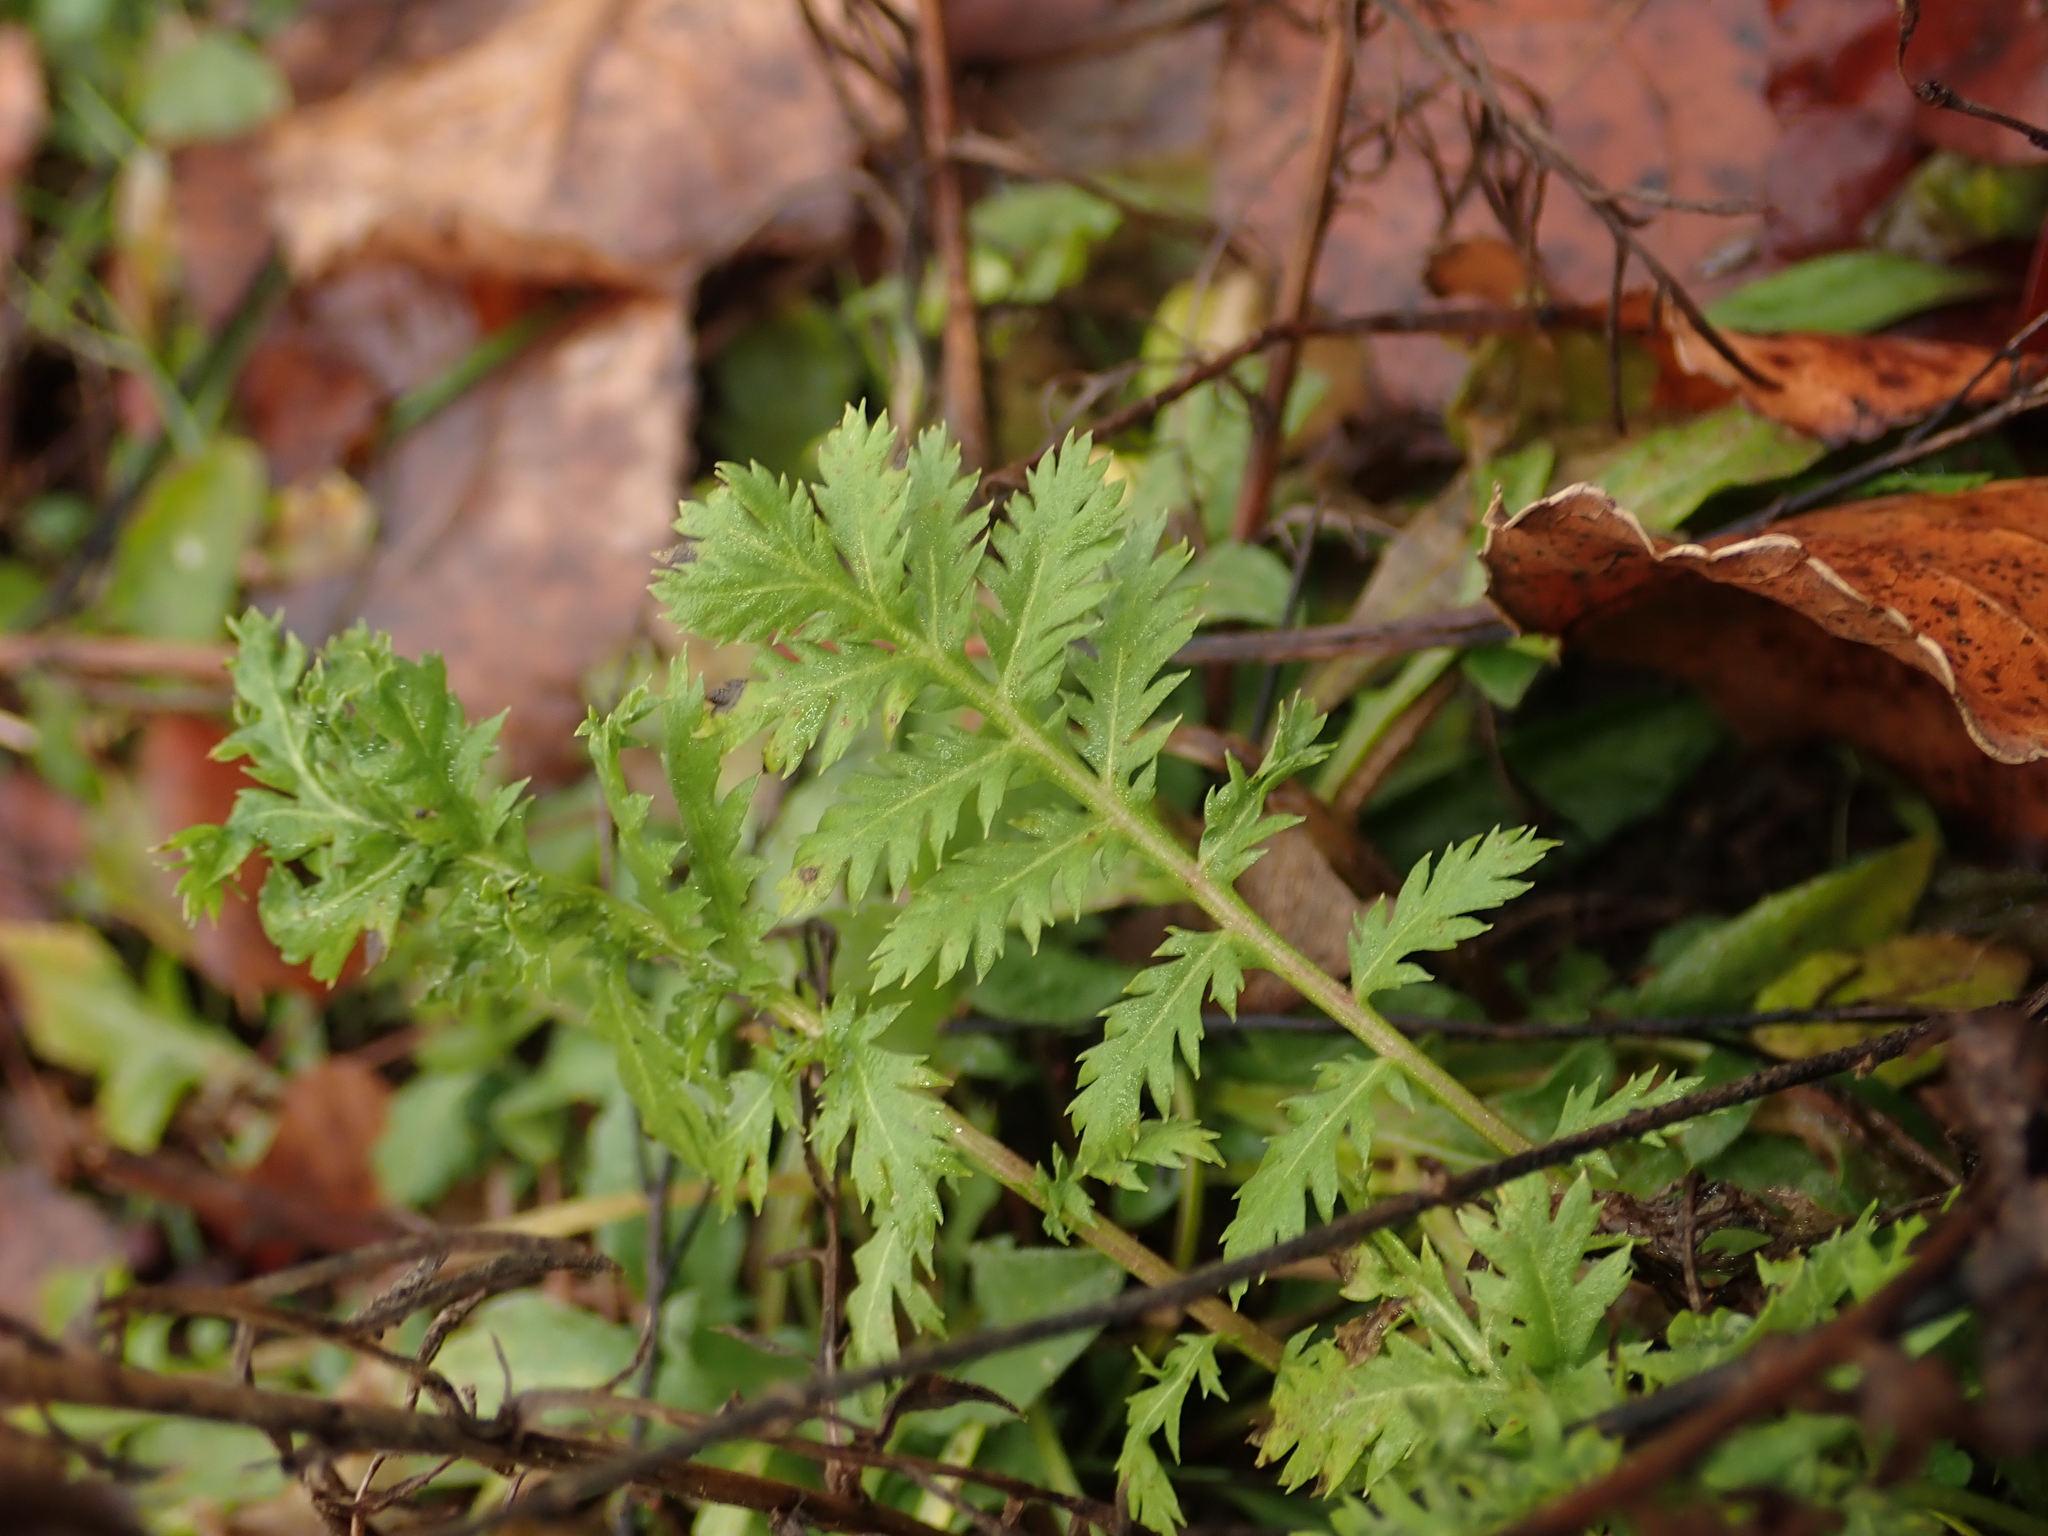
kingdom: Plantae
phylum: Tracheophyta
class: Magnoliopsida
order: Asterales
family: Asteraceae
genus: Tanacetum
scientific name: Tanacetum vulgare
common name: Common tansy
